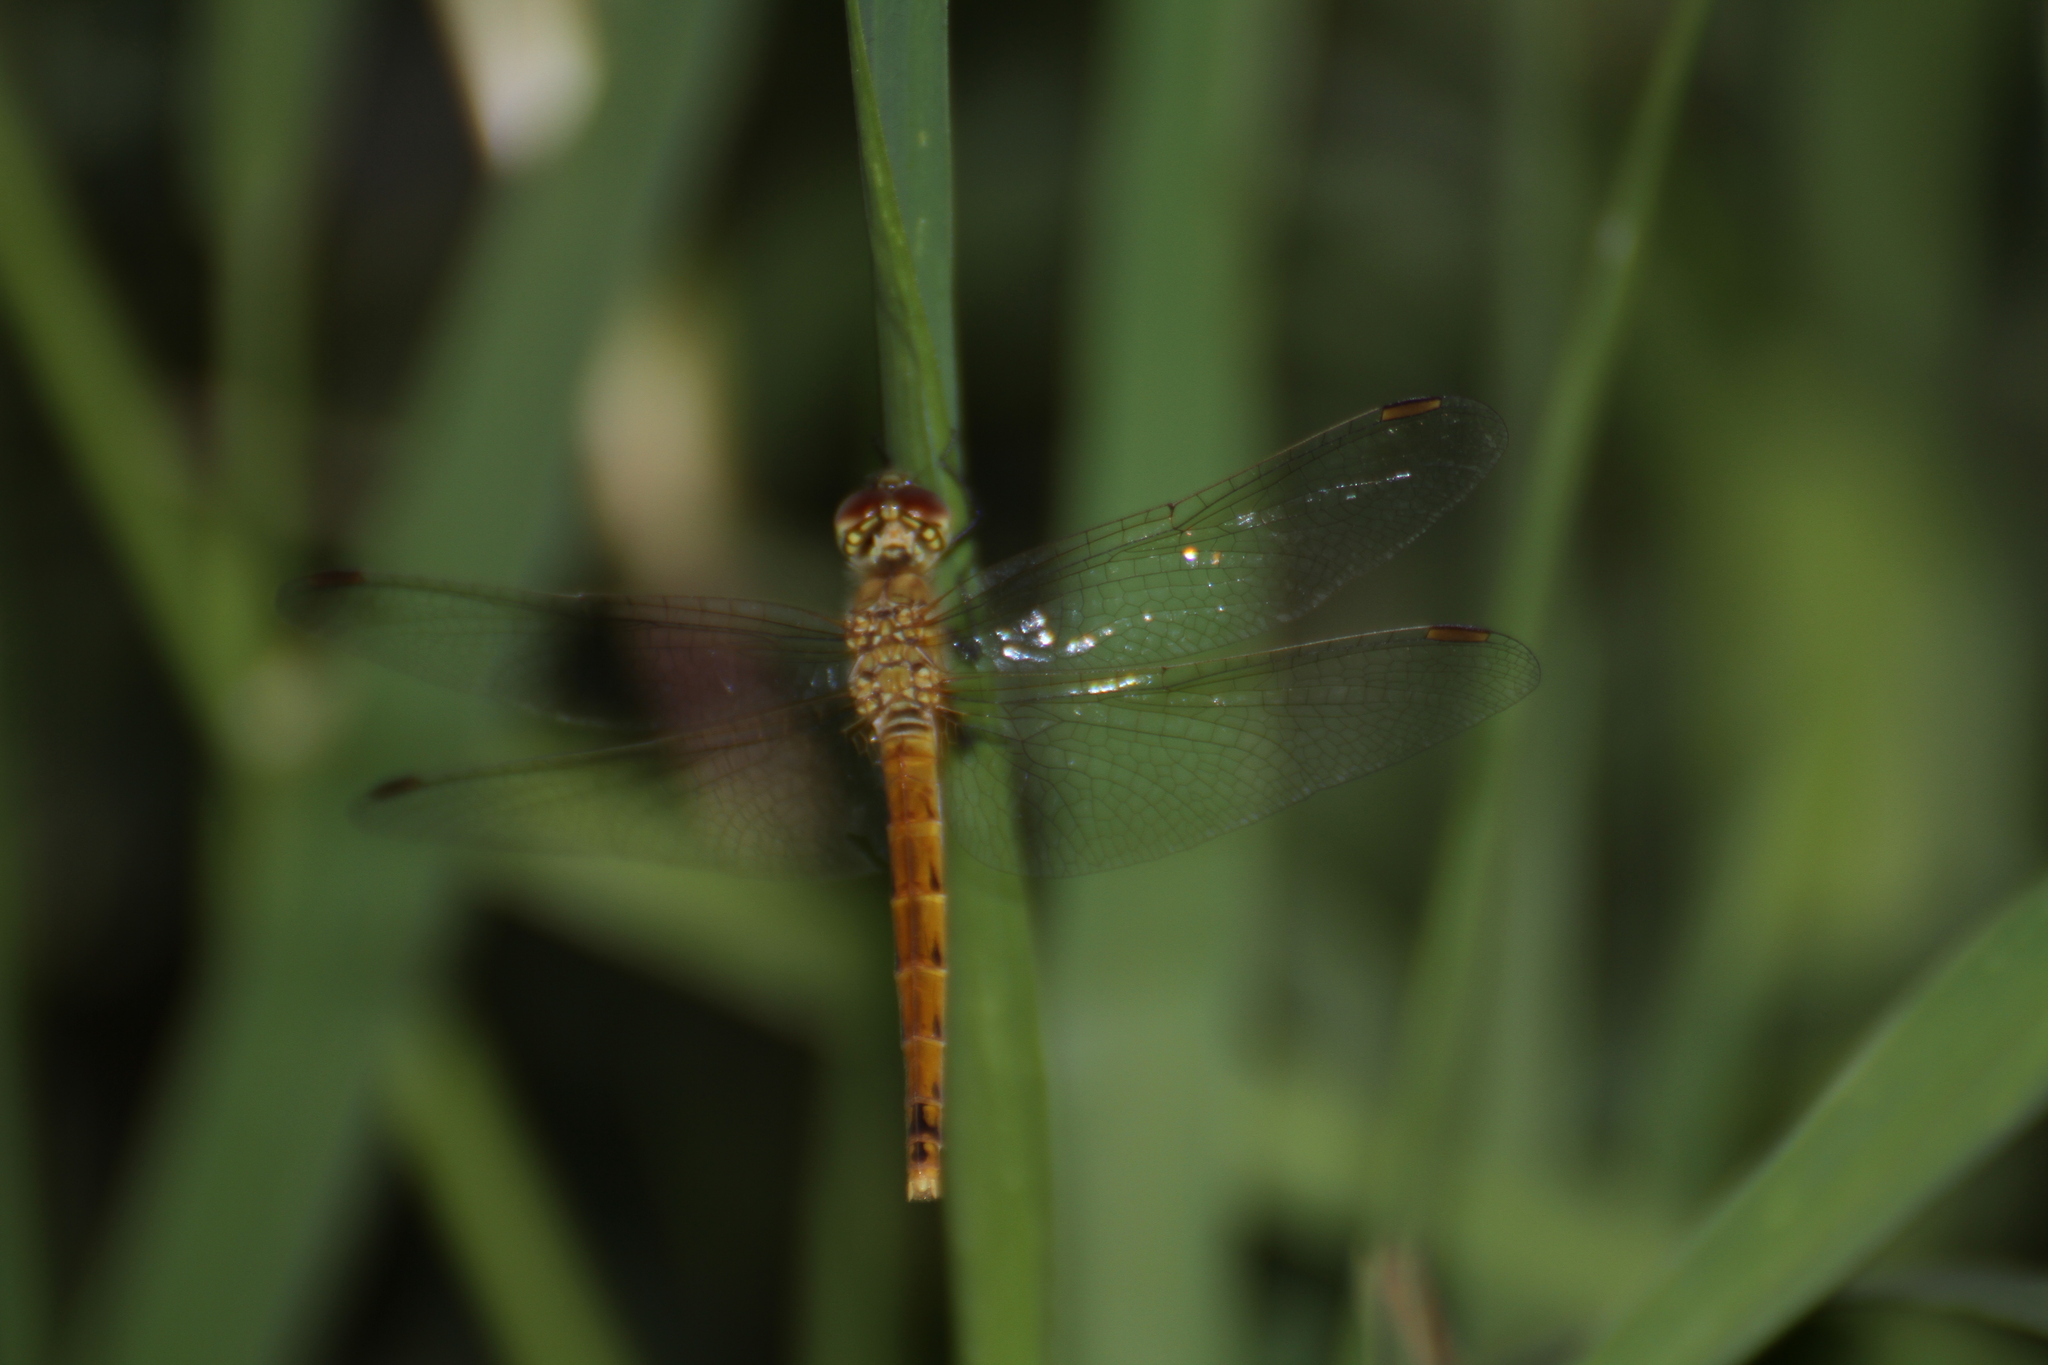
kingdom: Animalia
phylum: Arthropoda
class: Insecta
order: Odonata
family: Libellulidae
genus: Sympetrum
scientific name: Sympetrum depressiusculum
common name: Spotted darter
